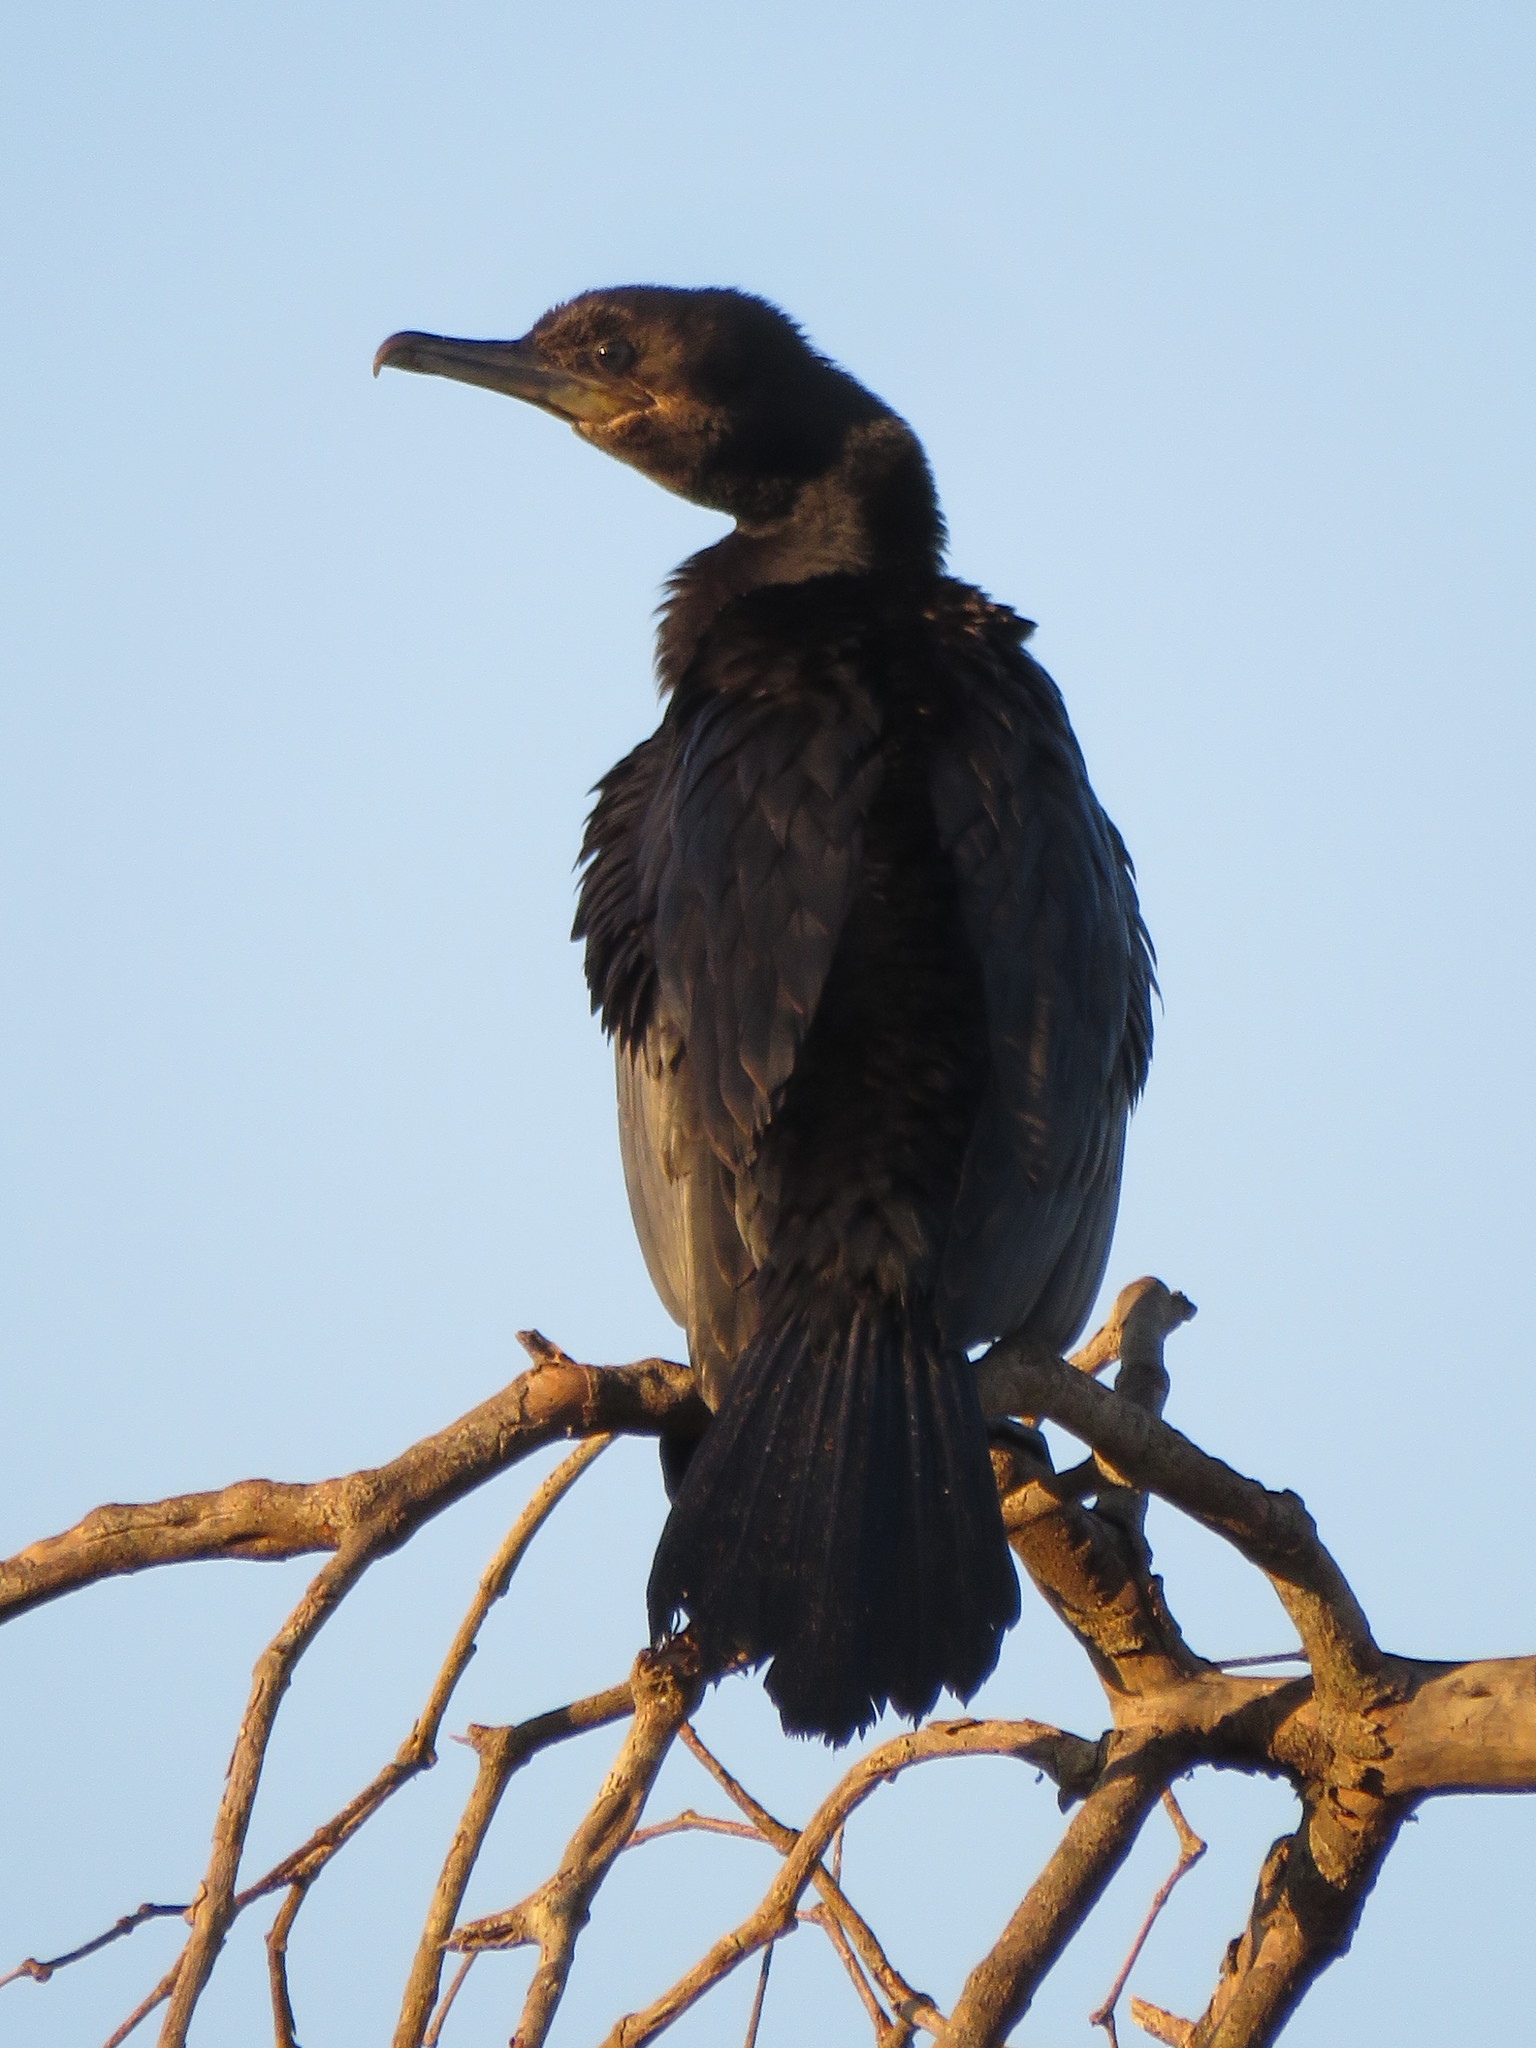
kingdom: Animalia
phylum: Chordata
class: Aves
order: Suliformes
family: Phalacrocoracidae
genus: Phalacrocorax
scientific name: Phalacrocorax brasilianus
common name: Neotropic cormorant
